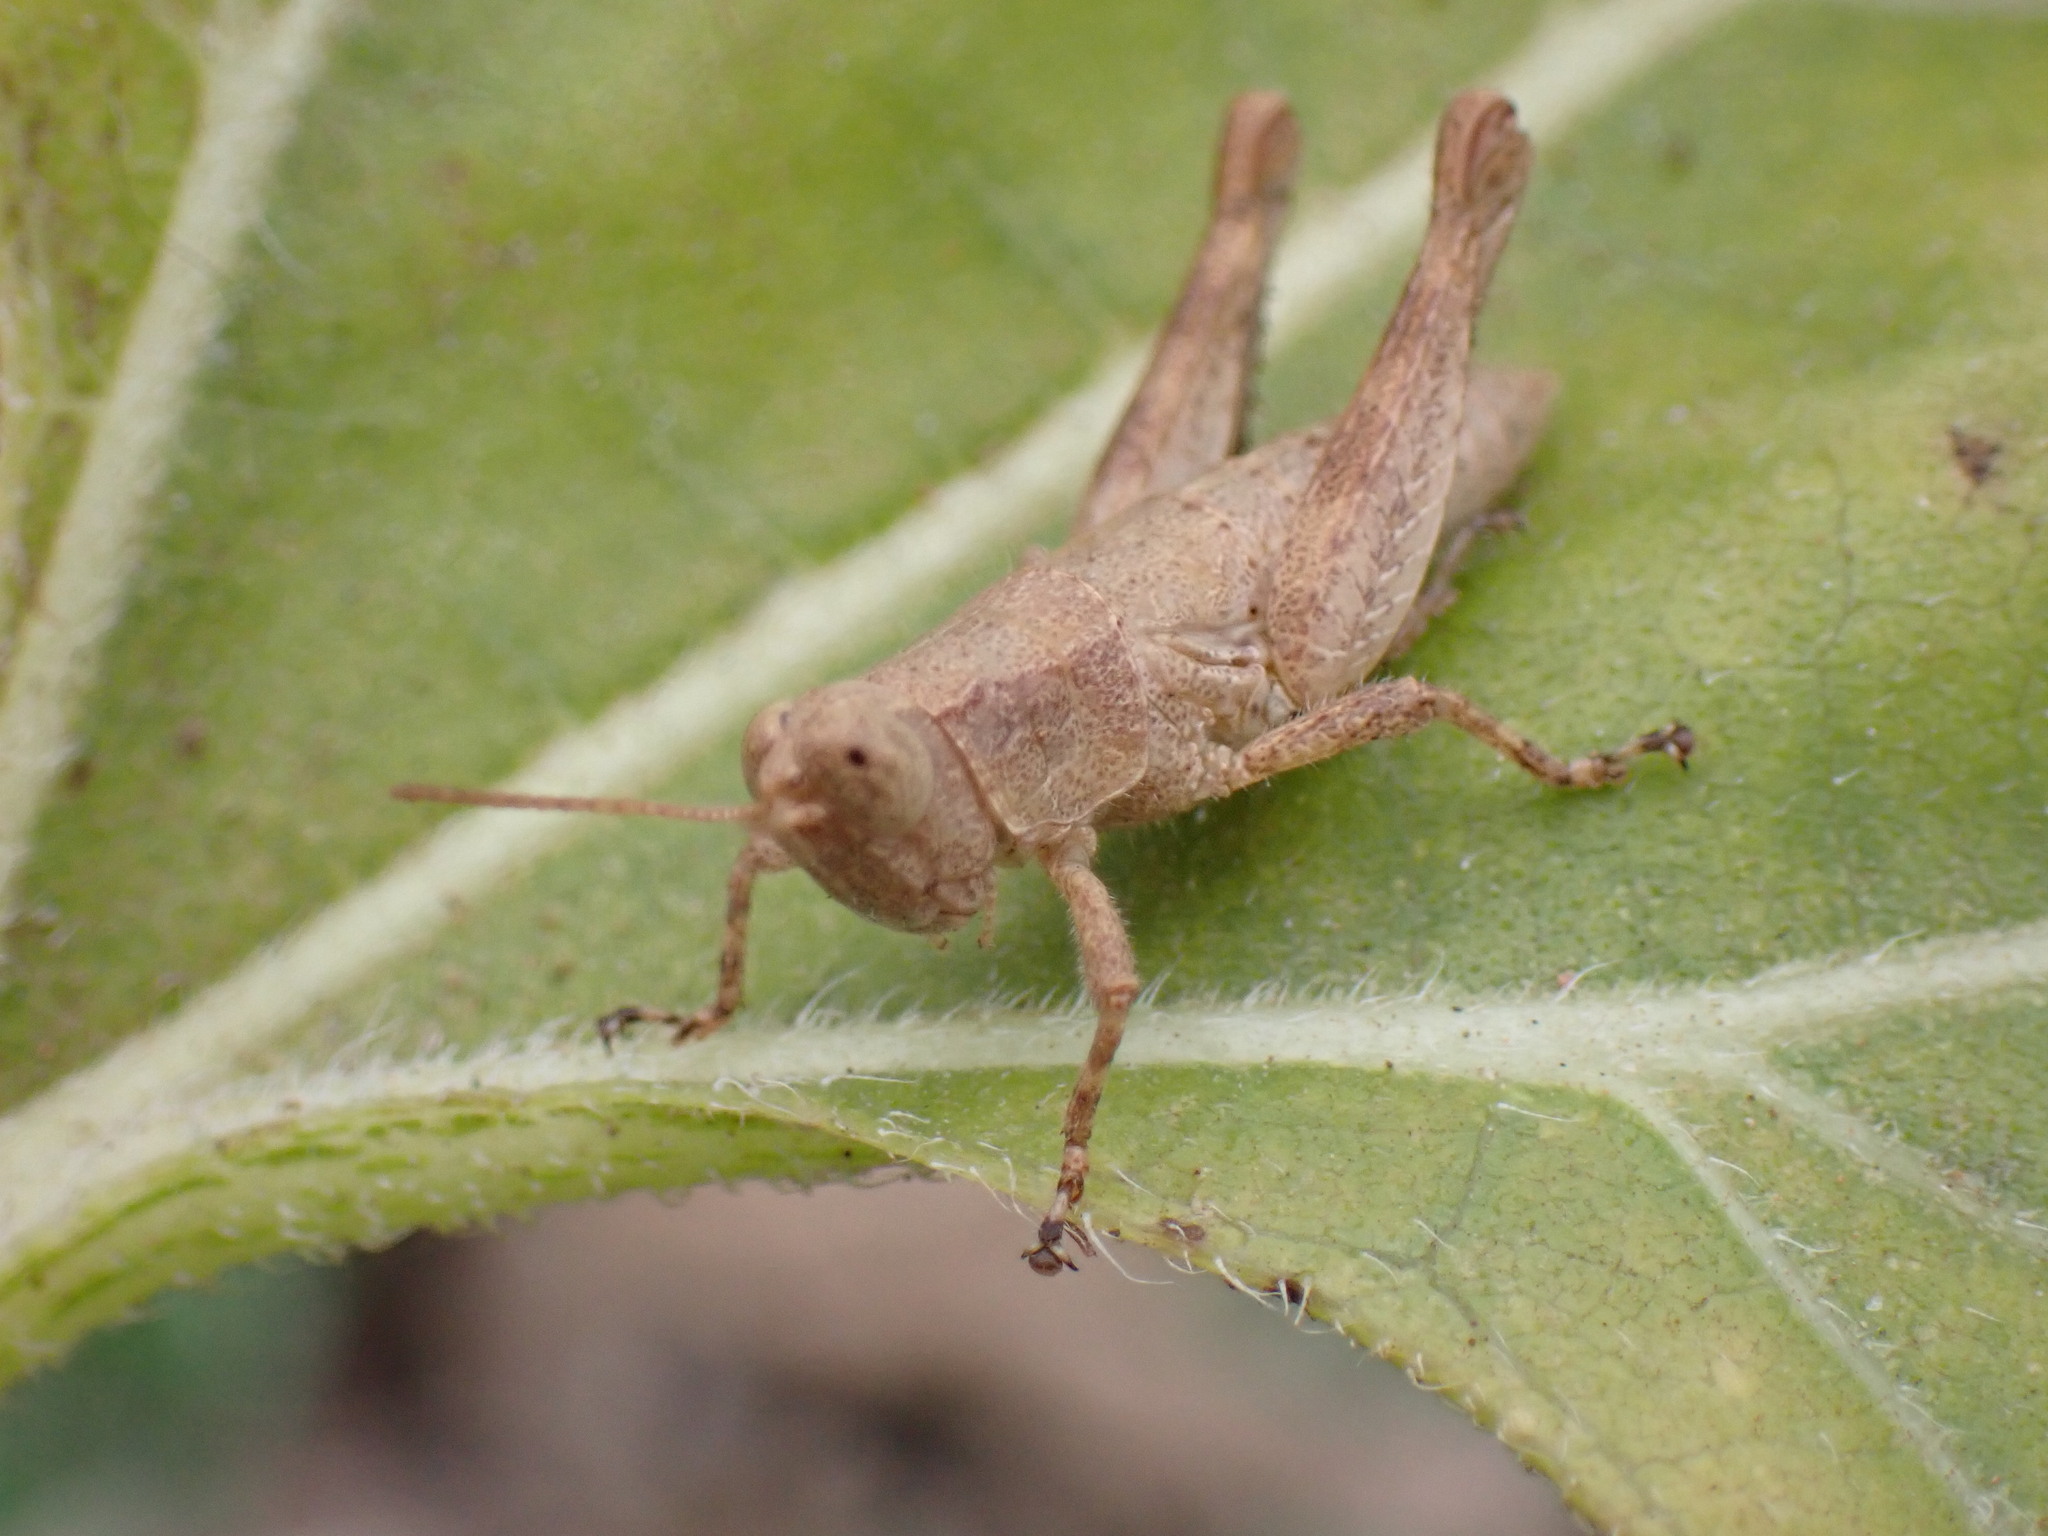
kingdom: Animalia
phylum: Arthropoda
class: Insecta
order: Orthoptera
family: Acrididae
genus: Arminda
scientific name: Arminda brunneri
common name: Tenerife rock grasshopper
